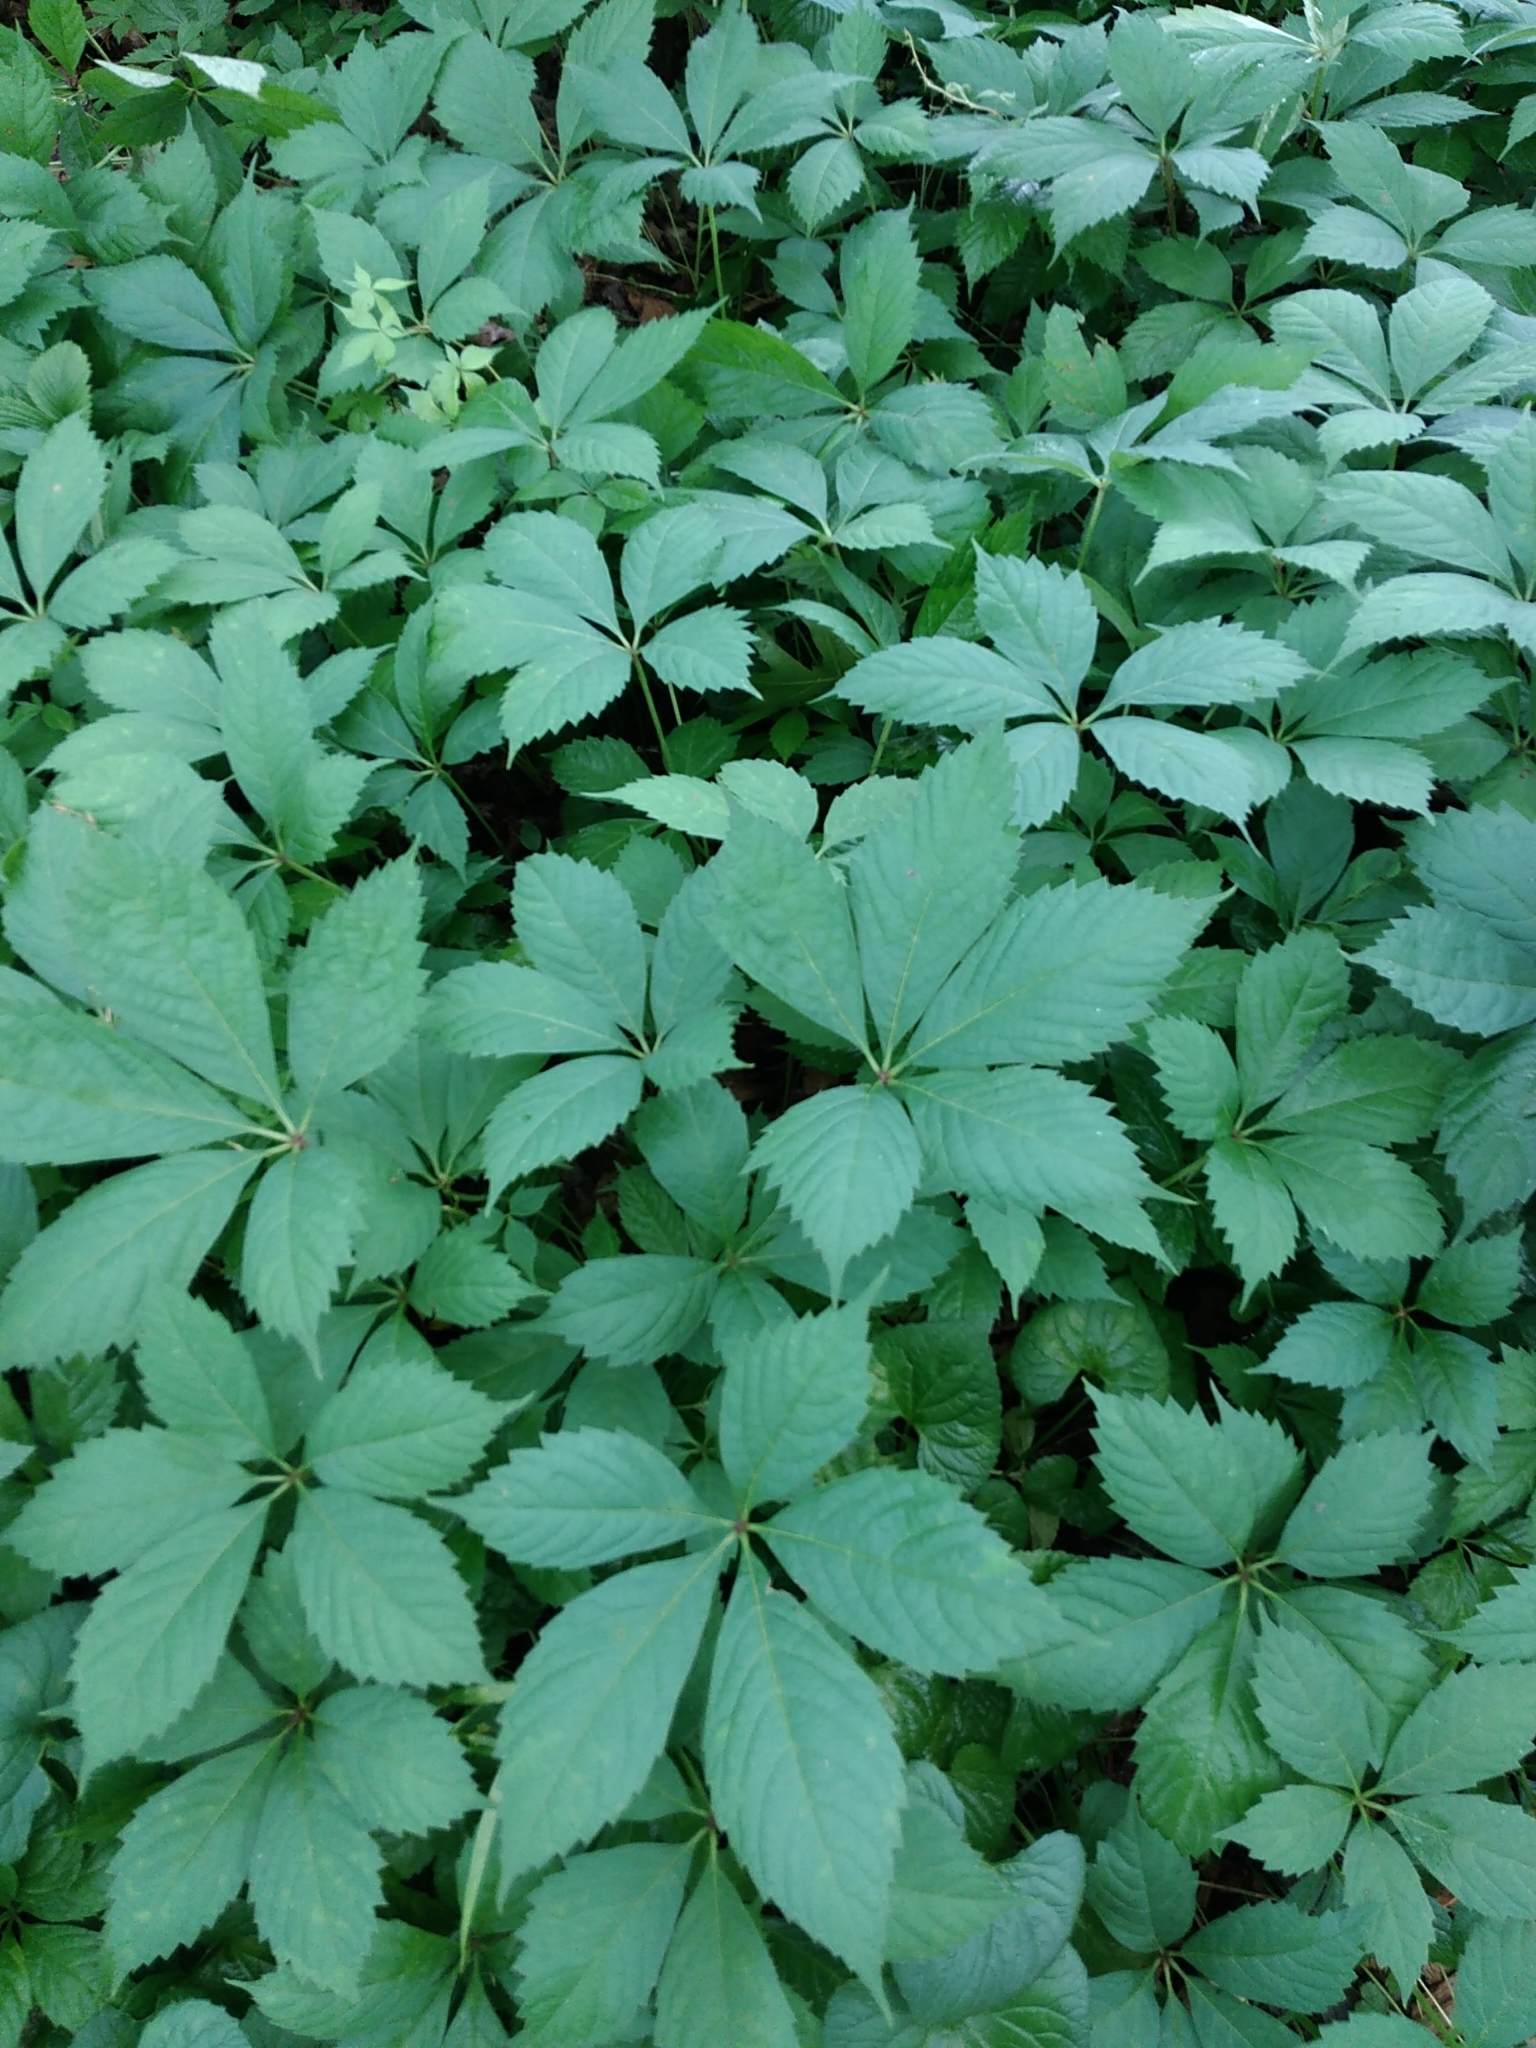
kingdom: Plantae
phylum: Tracheophyta
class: Magnoliopsida
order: Vitales
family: Vitaceae
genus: Parthenocissus
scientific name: Parthenocissus quinquefolia
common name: Virginia-creeper
